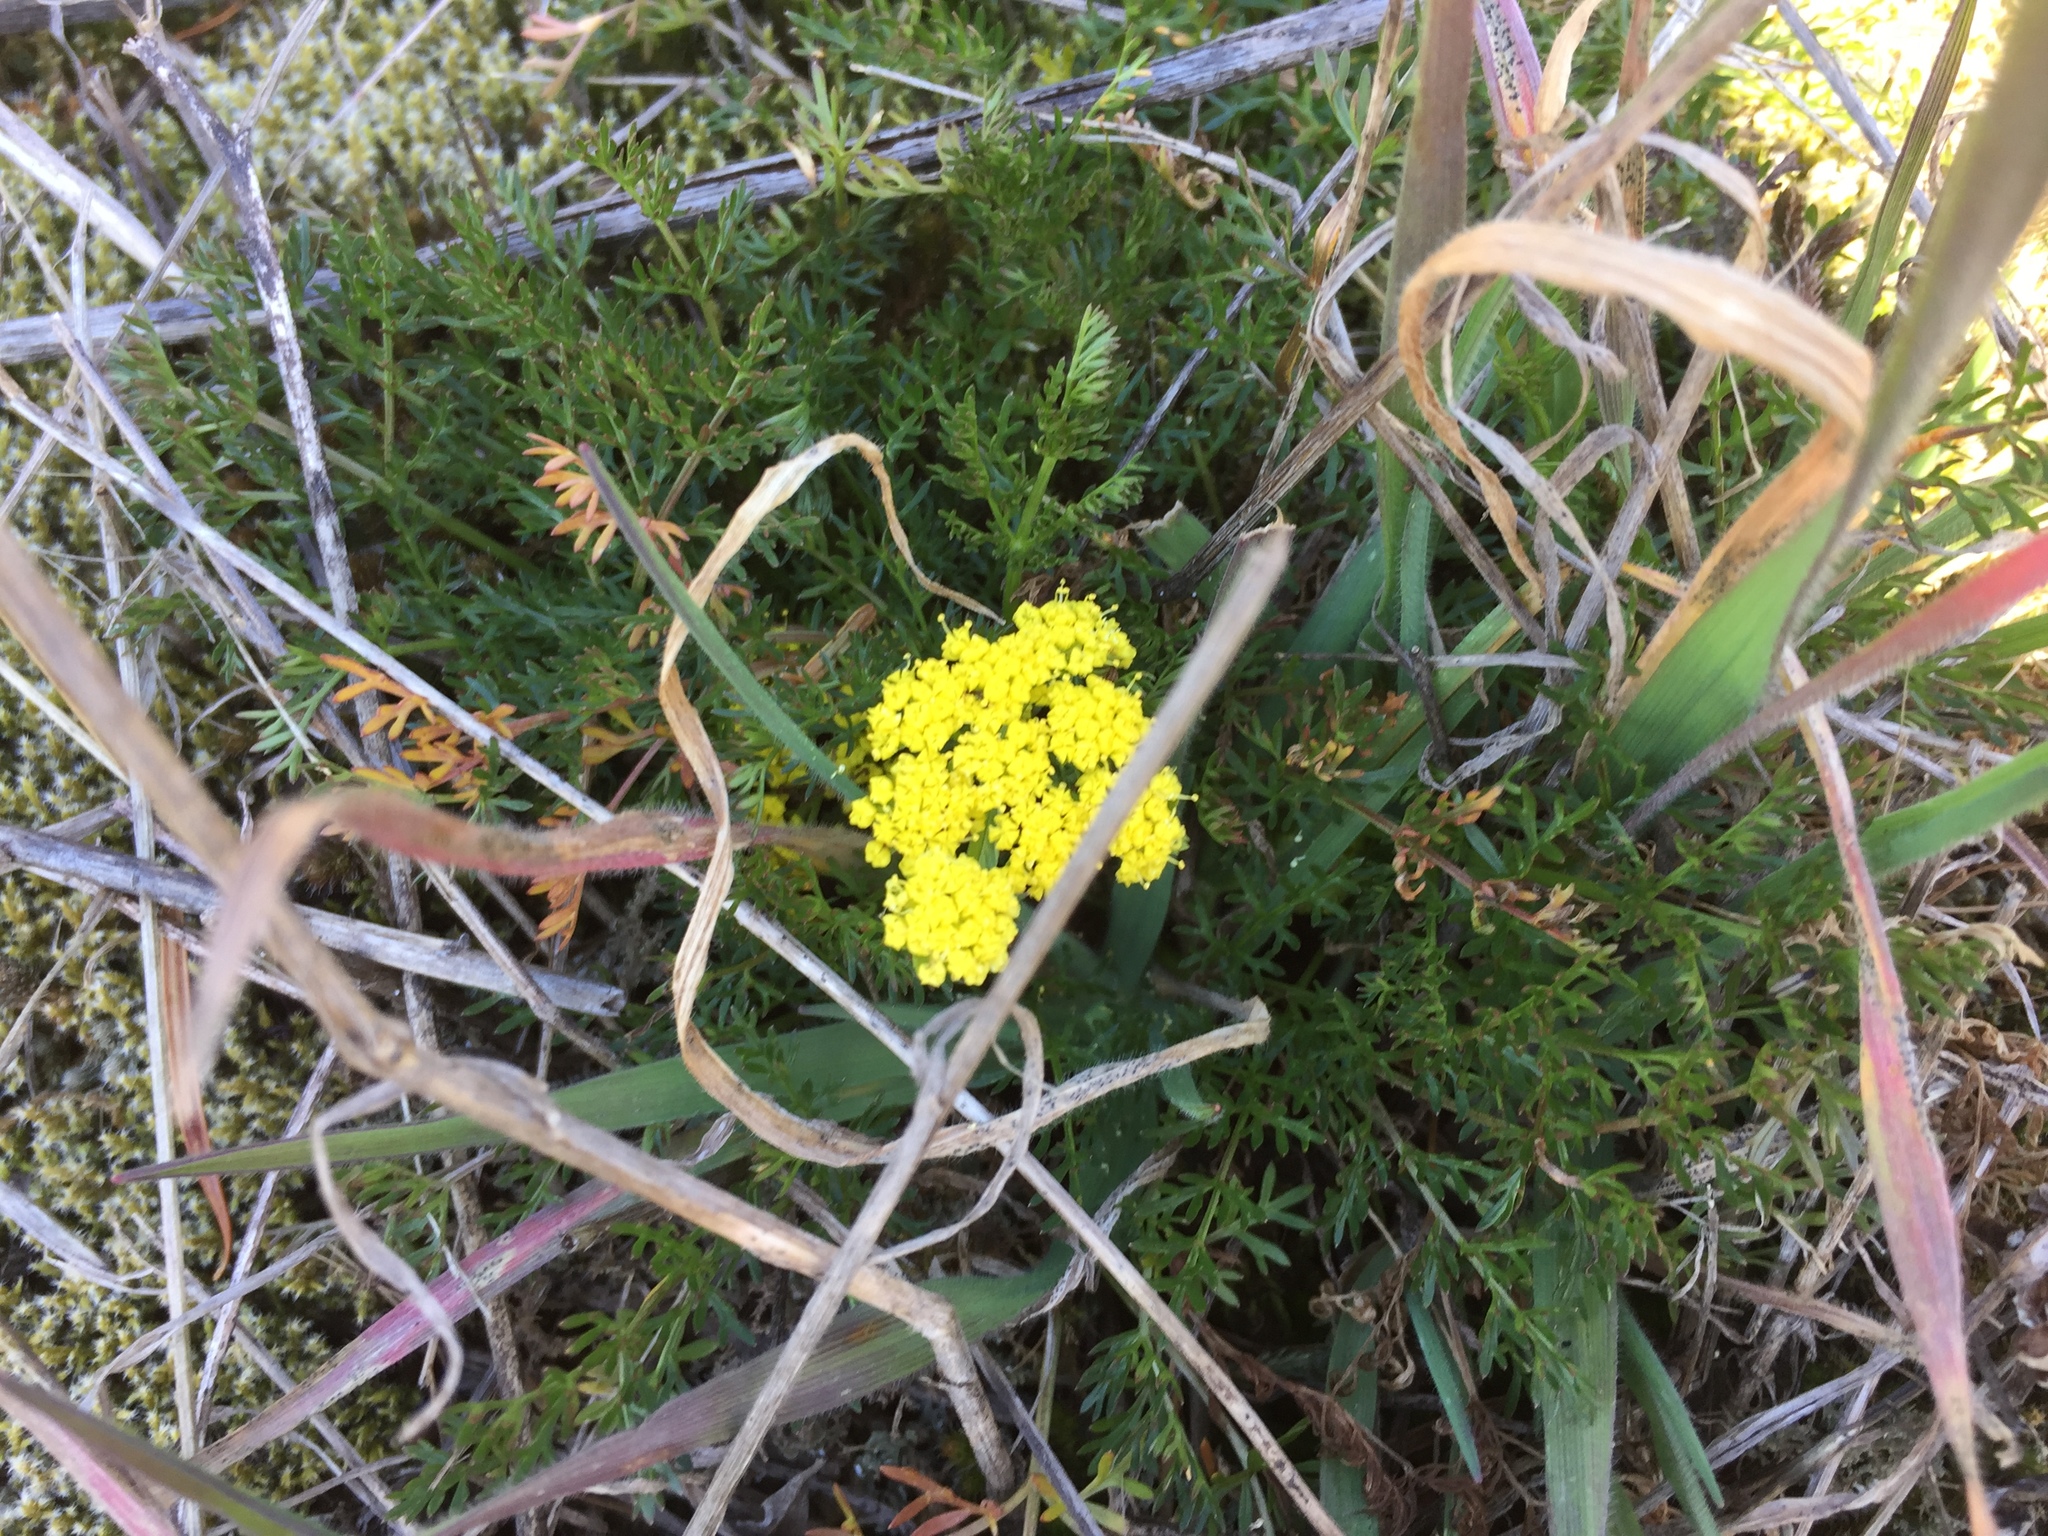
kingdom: Plantae
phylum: Tracheophyta
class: Magnoliopsida
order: Apiales
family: Apiaceae
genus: Lomatium
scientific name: Lomatium utriculatum
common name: Fine-leaf desert-parsley
